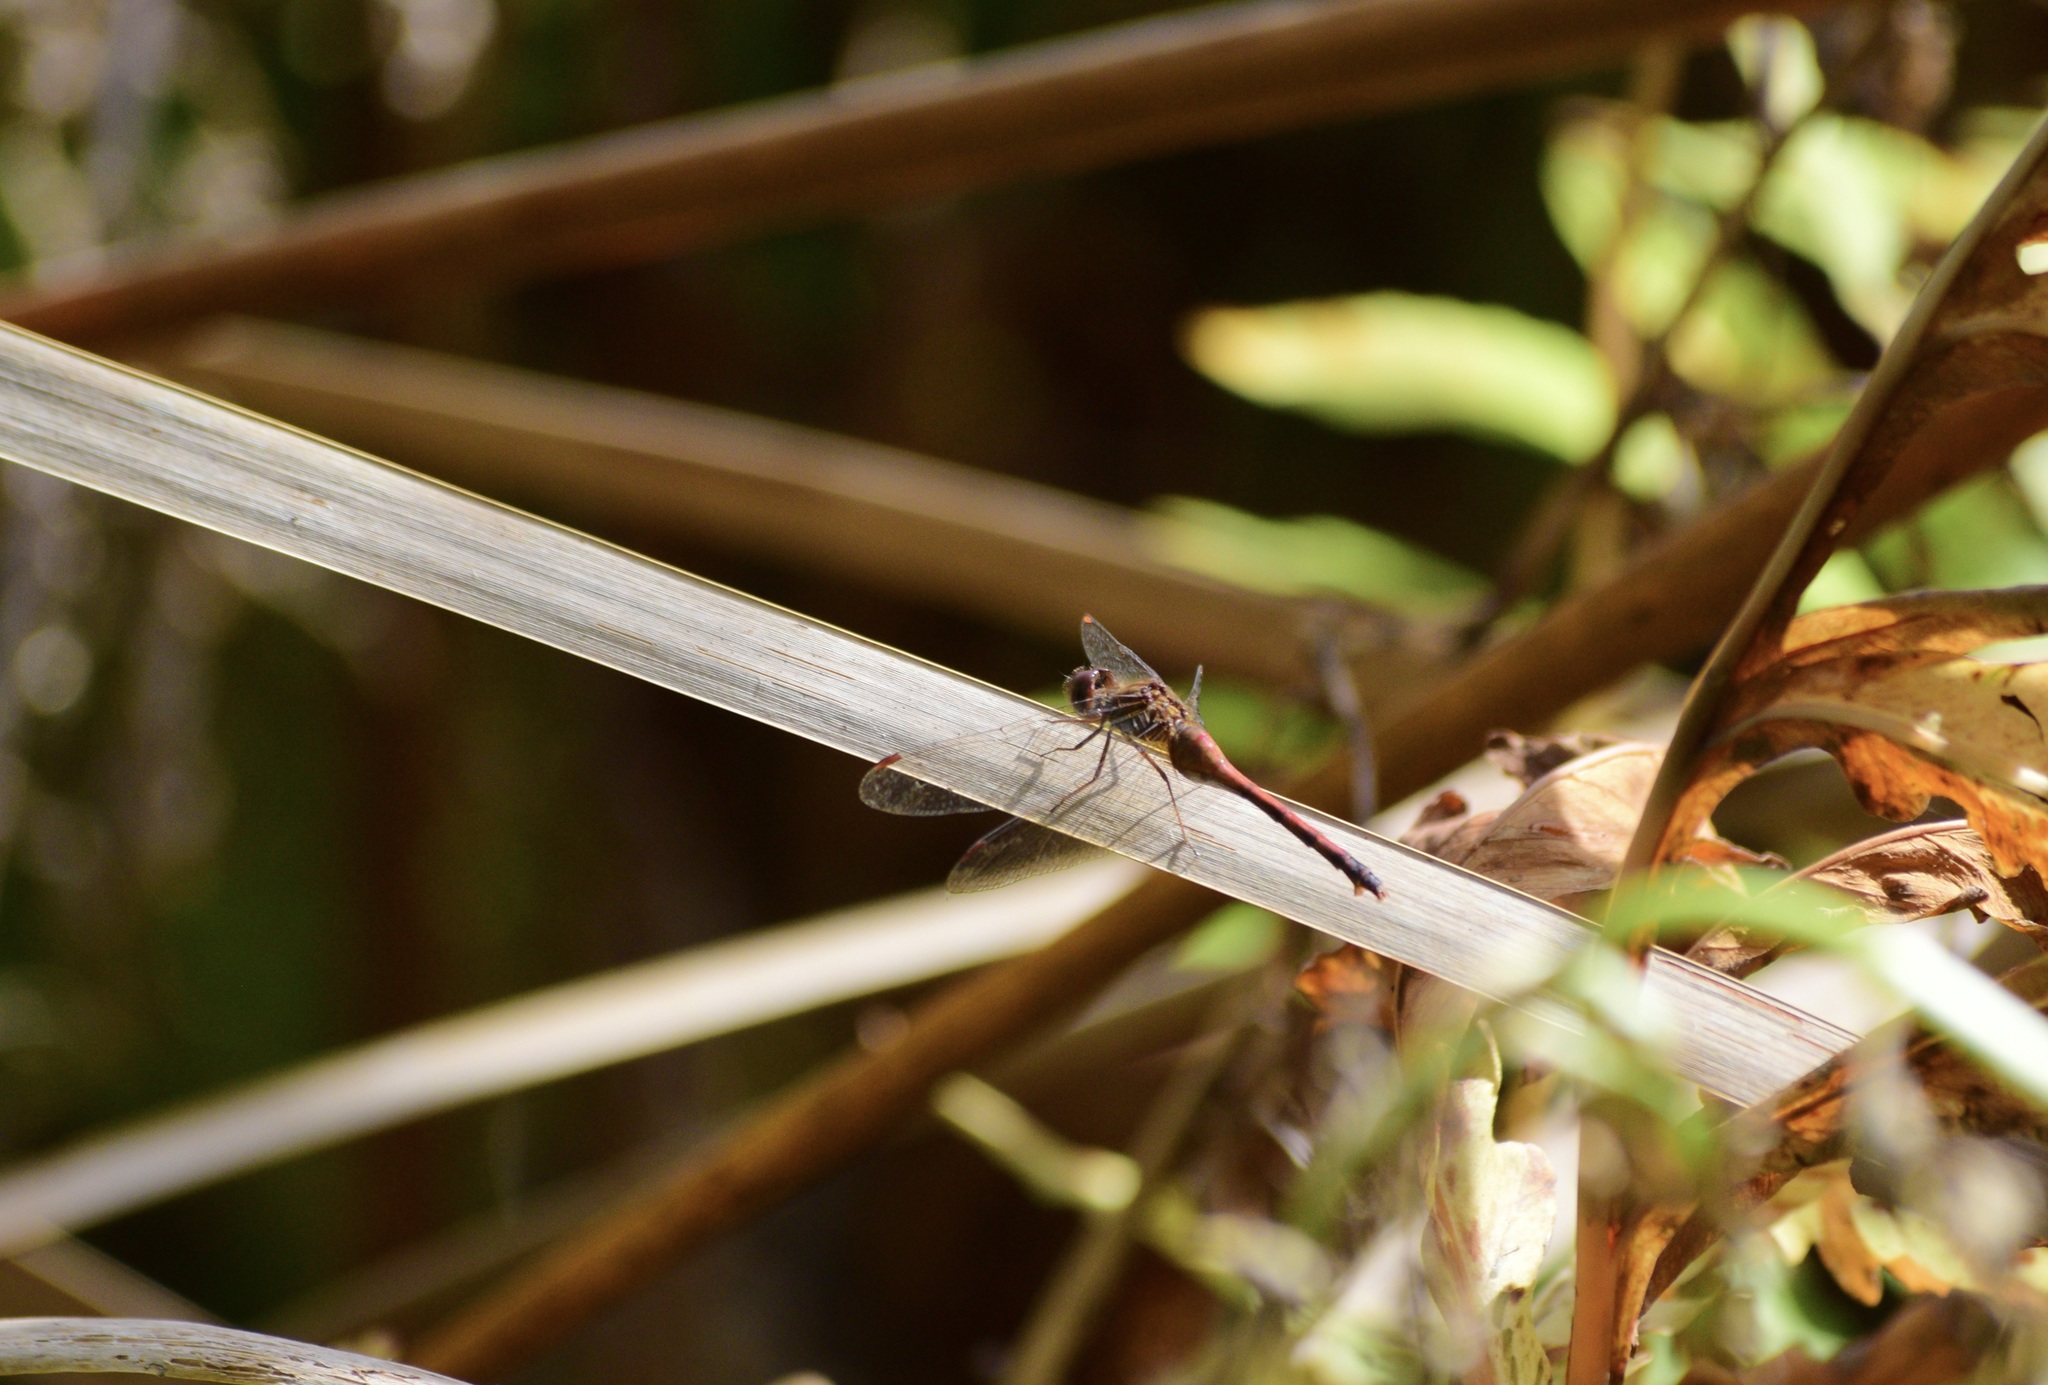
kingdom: Animalia
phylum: Arthropoda
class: Insecta
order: Odonata
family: Libellulidae
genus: Sympetrum
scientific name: Sympetrum vicinum
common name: Autumn meadowhawk
